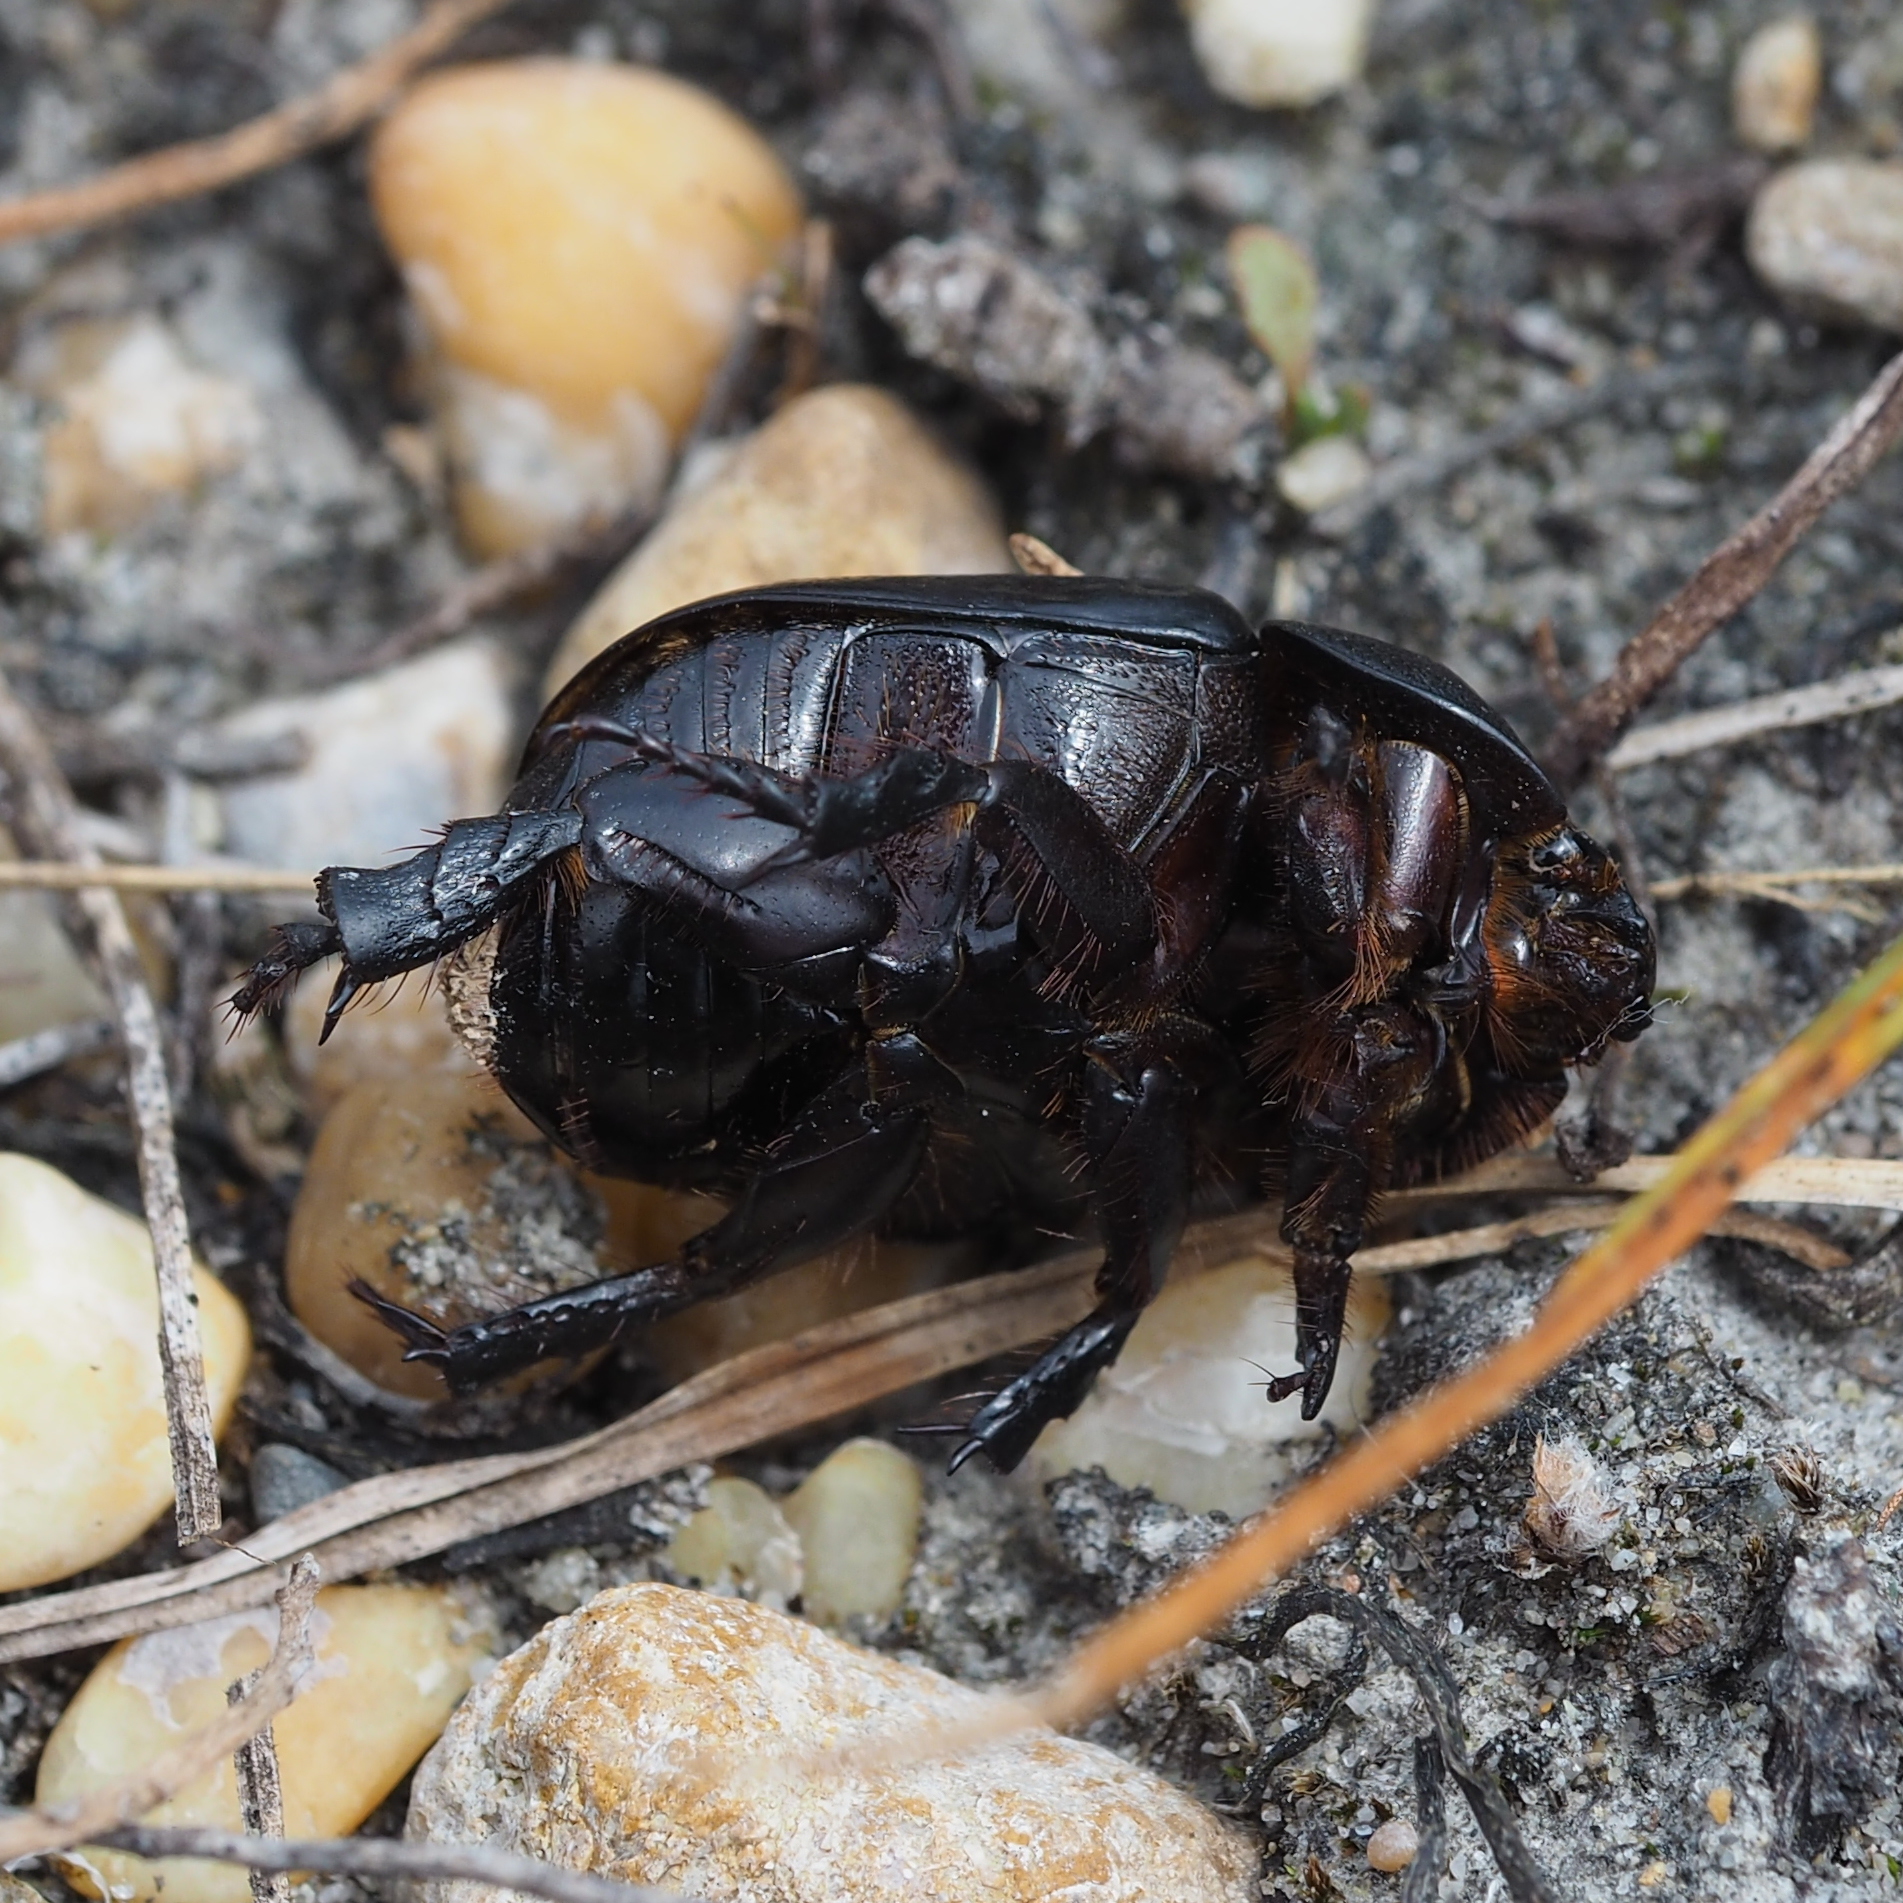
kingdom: Animalia
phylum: Arthropoda
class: Insecta
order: Coleoptera
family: Scarabaeidae
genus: Pentodon
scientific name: Pentodon idiota
